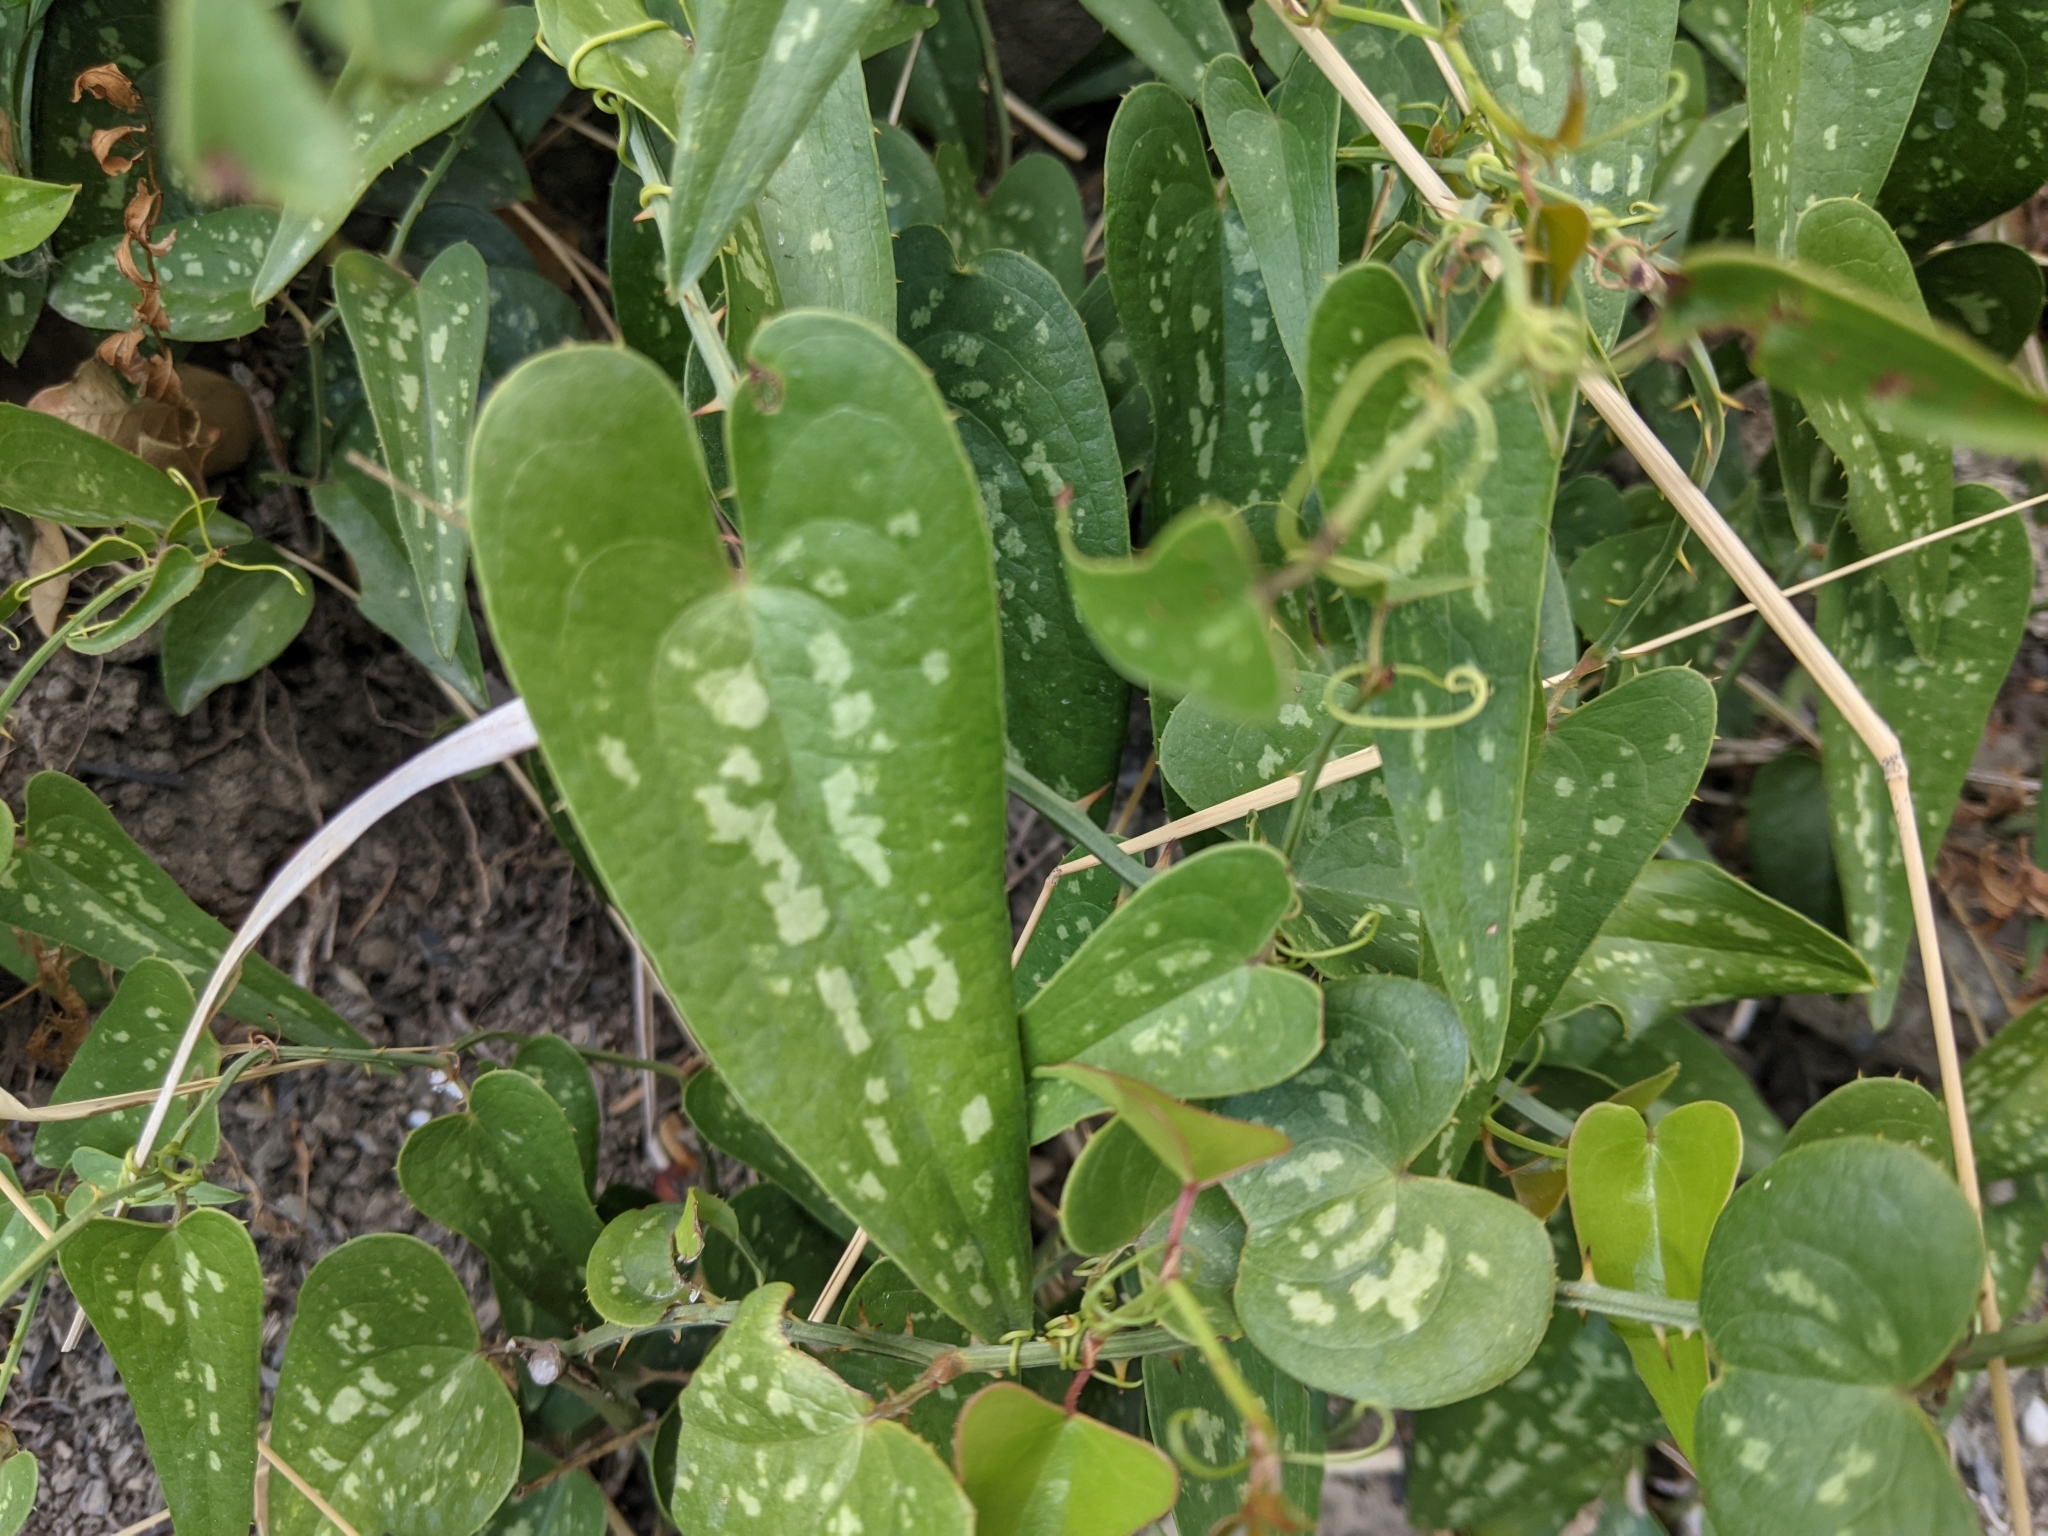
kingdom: Plantae
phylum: Tracheophyta
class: Liliopsida
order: Liliales
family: Smilacaceae
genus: Smilax
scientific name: Smilax aspera
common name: Common smilax
